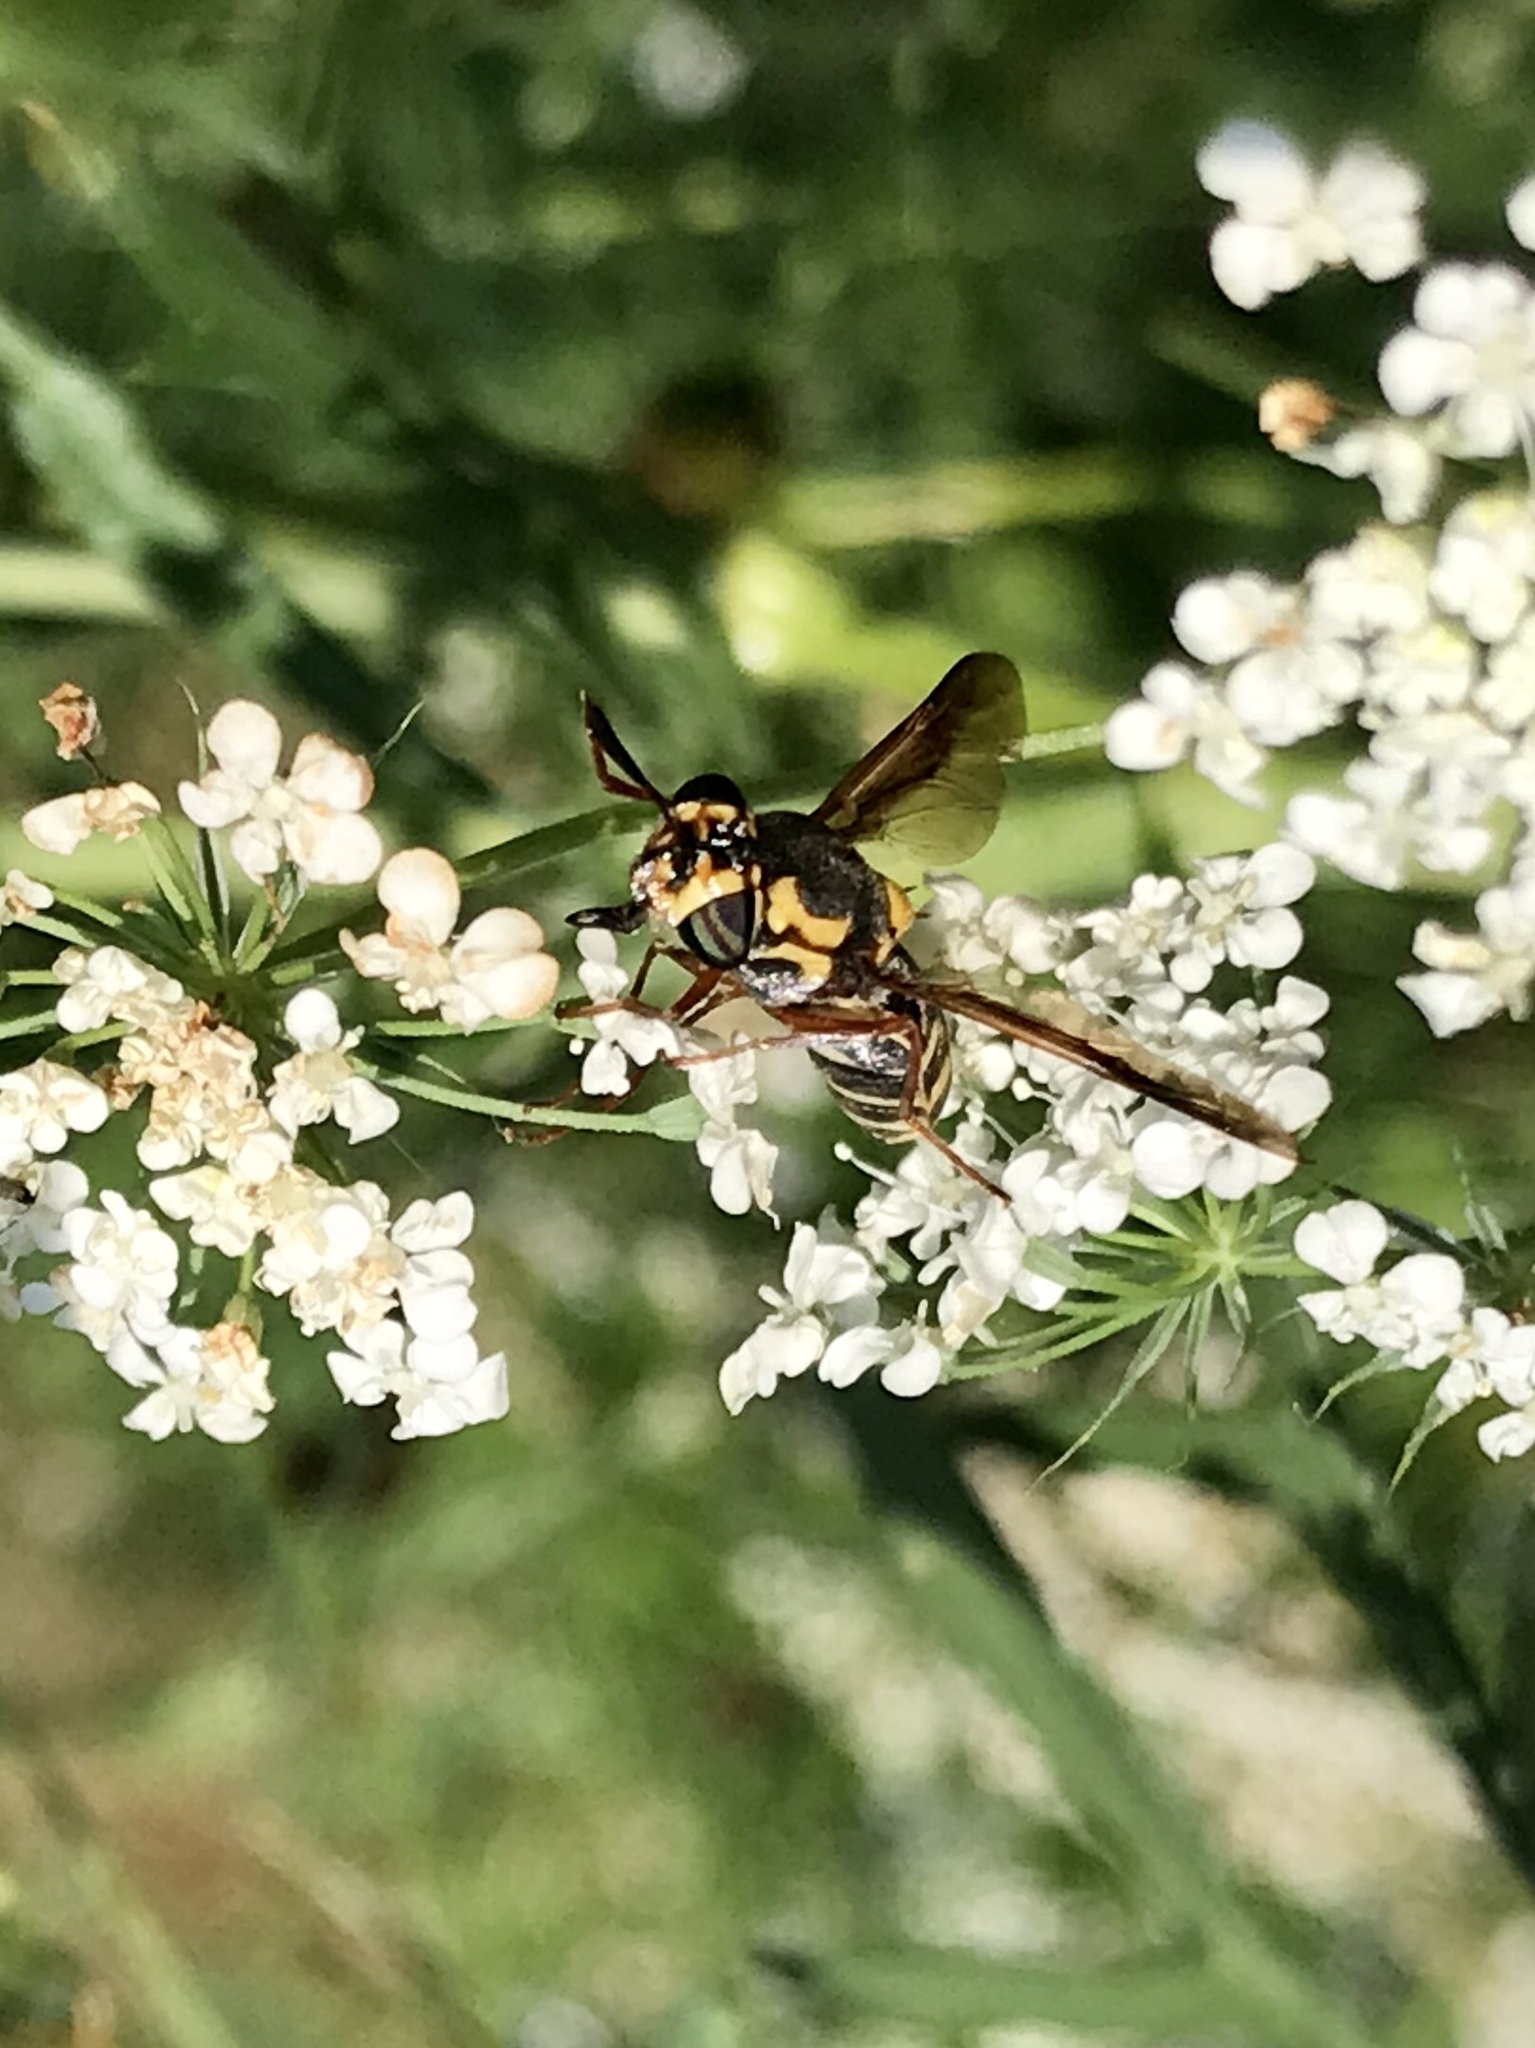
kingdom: Animalia
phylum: Arthropoda
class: Insecta
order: Diptera
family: Stratiomyidae
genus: Hoplitimyia
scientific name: Hoplitimyia constans
